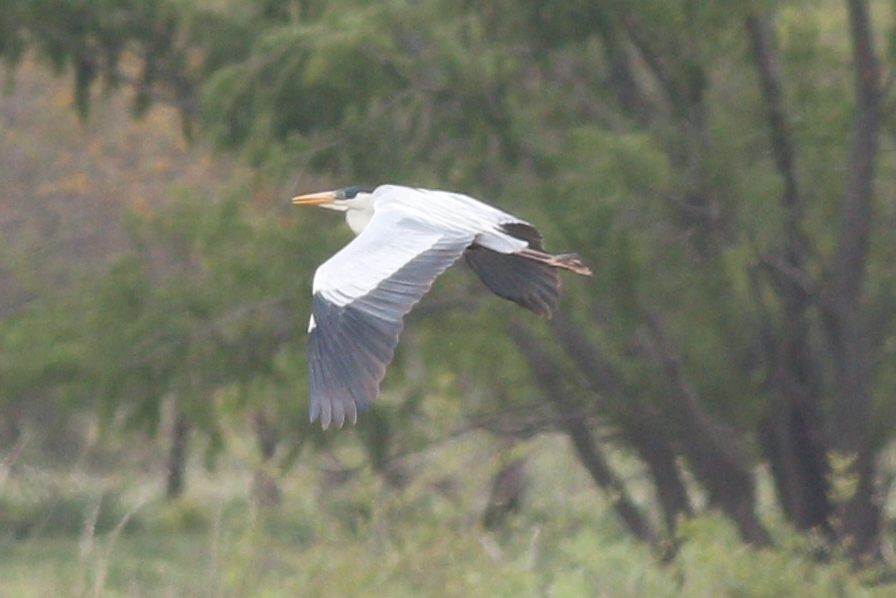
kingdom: Animalia
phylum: Chordata
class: Aves
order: Pelecaniformes
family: Ardeidae
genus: Ardea
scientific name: Ardea cocoi
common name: Cocoi heron
